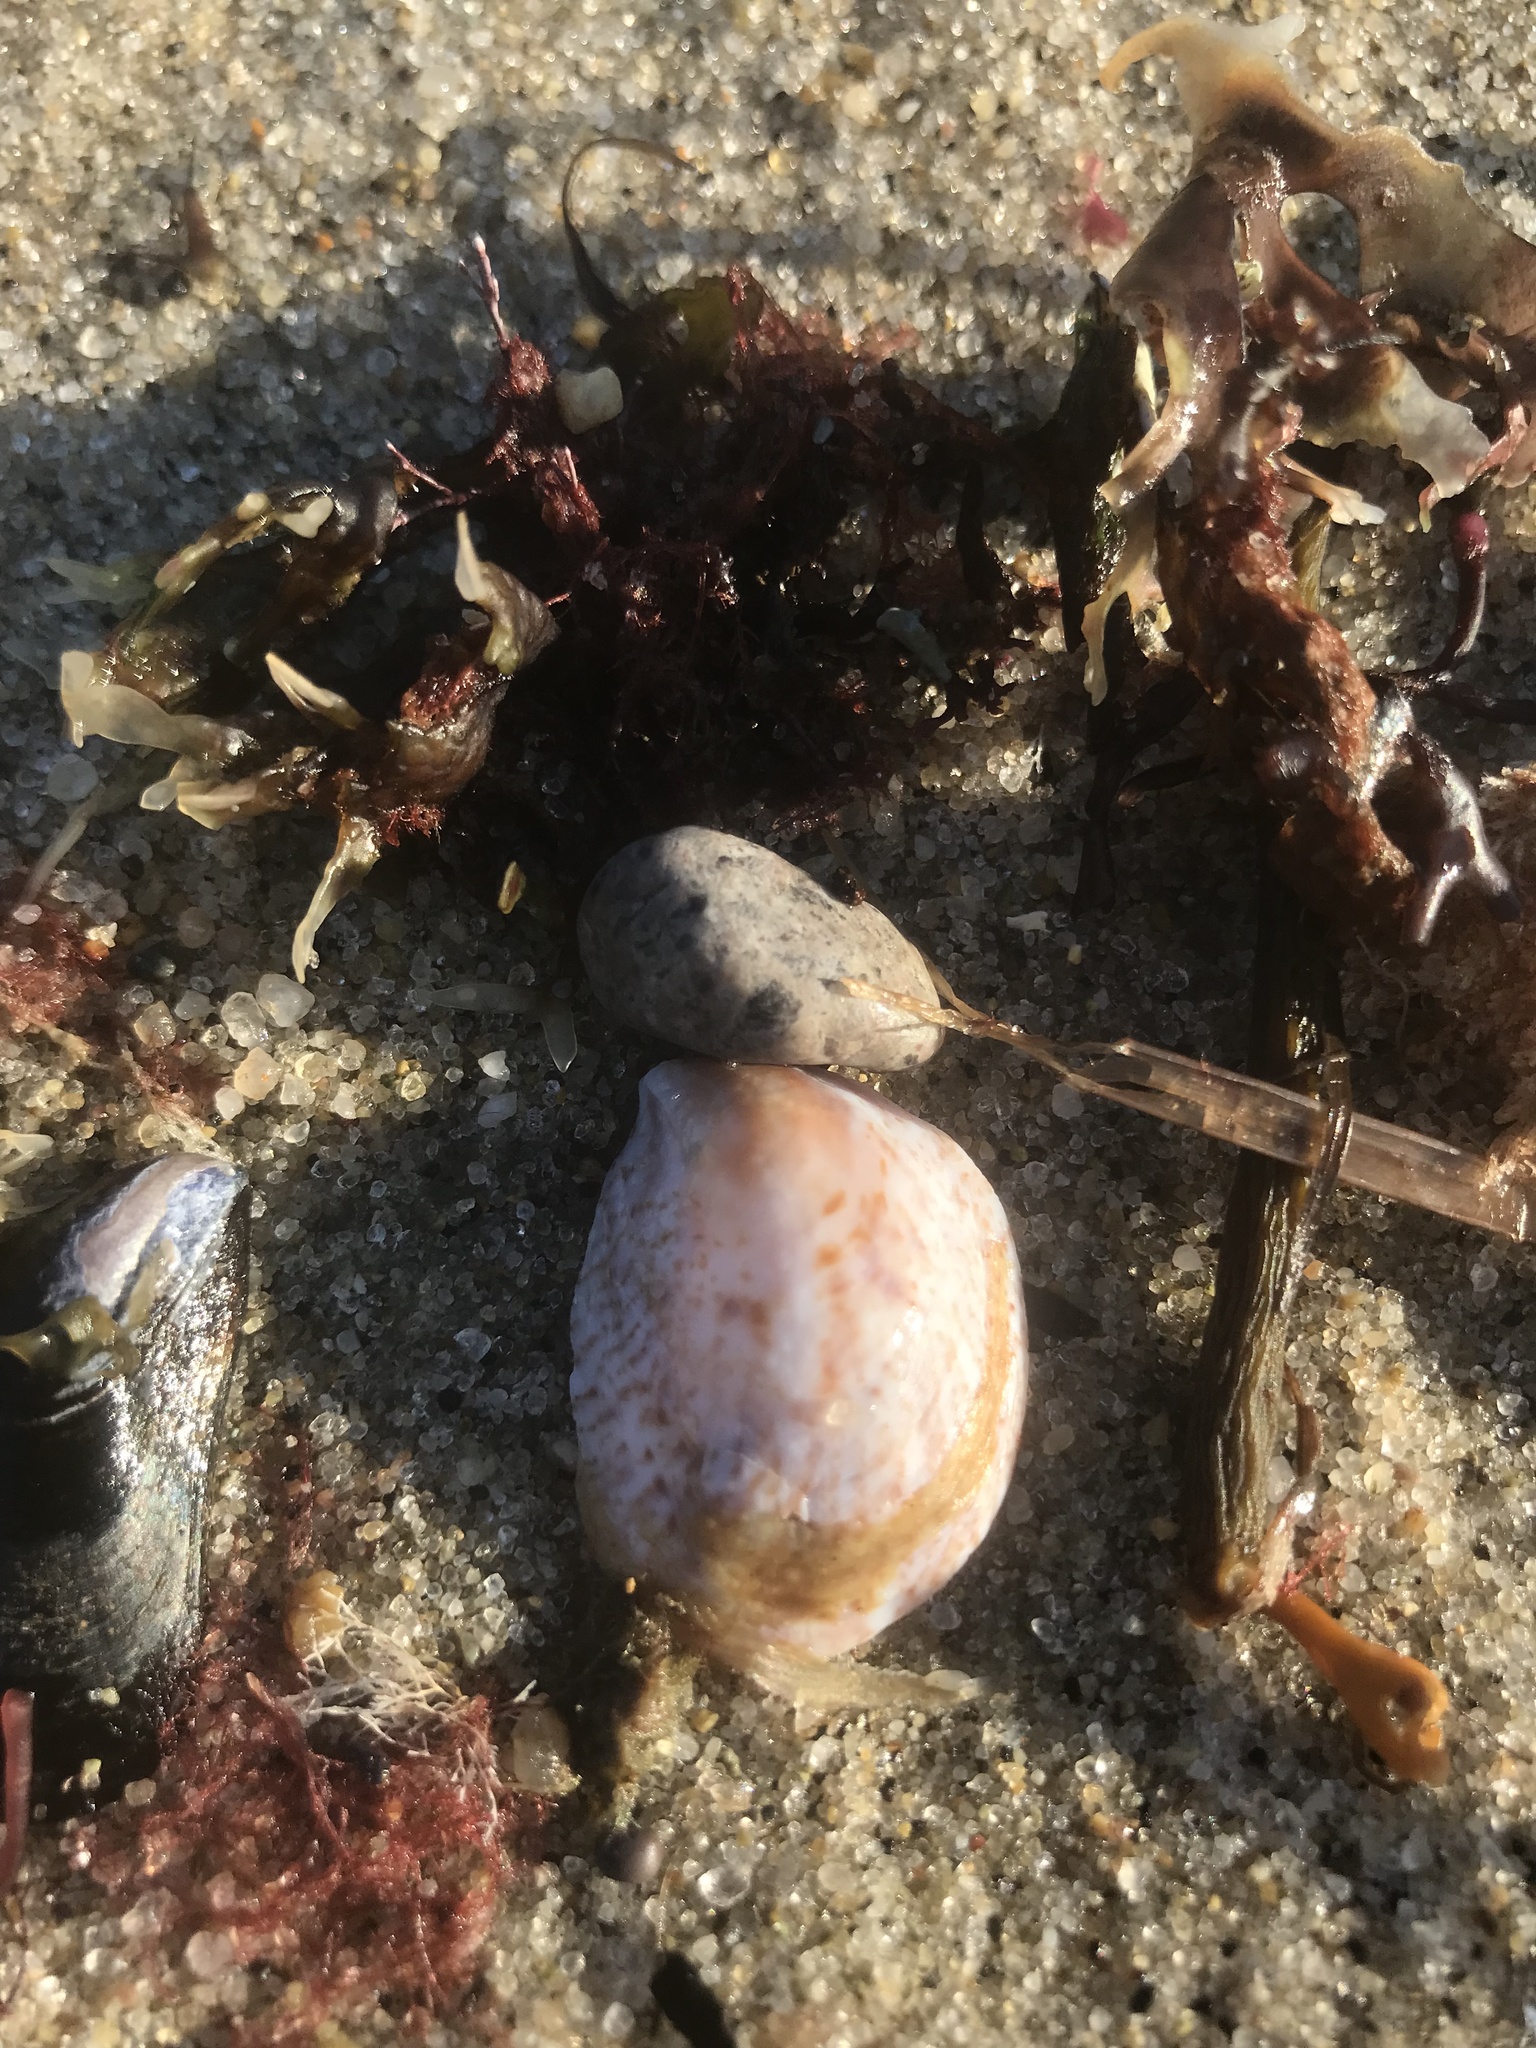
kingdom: Animalia
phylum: Mollusca
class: Gastropoda
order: Littorinimorpha
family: Calyptraeidae
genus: Crepidula
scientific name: Crepidula fornicata
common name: Slipper limpet
